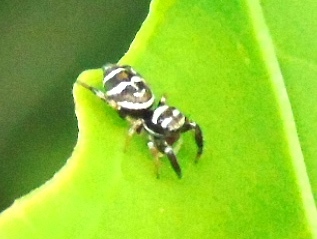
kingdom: Animalia
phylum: Arthropoda
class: Arachnida
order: Araneae
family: Salticidae
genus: Sassacus
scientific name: Sassacus
